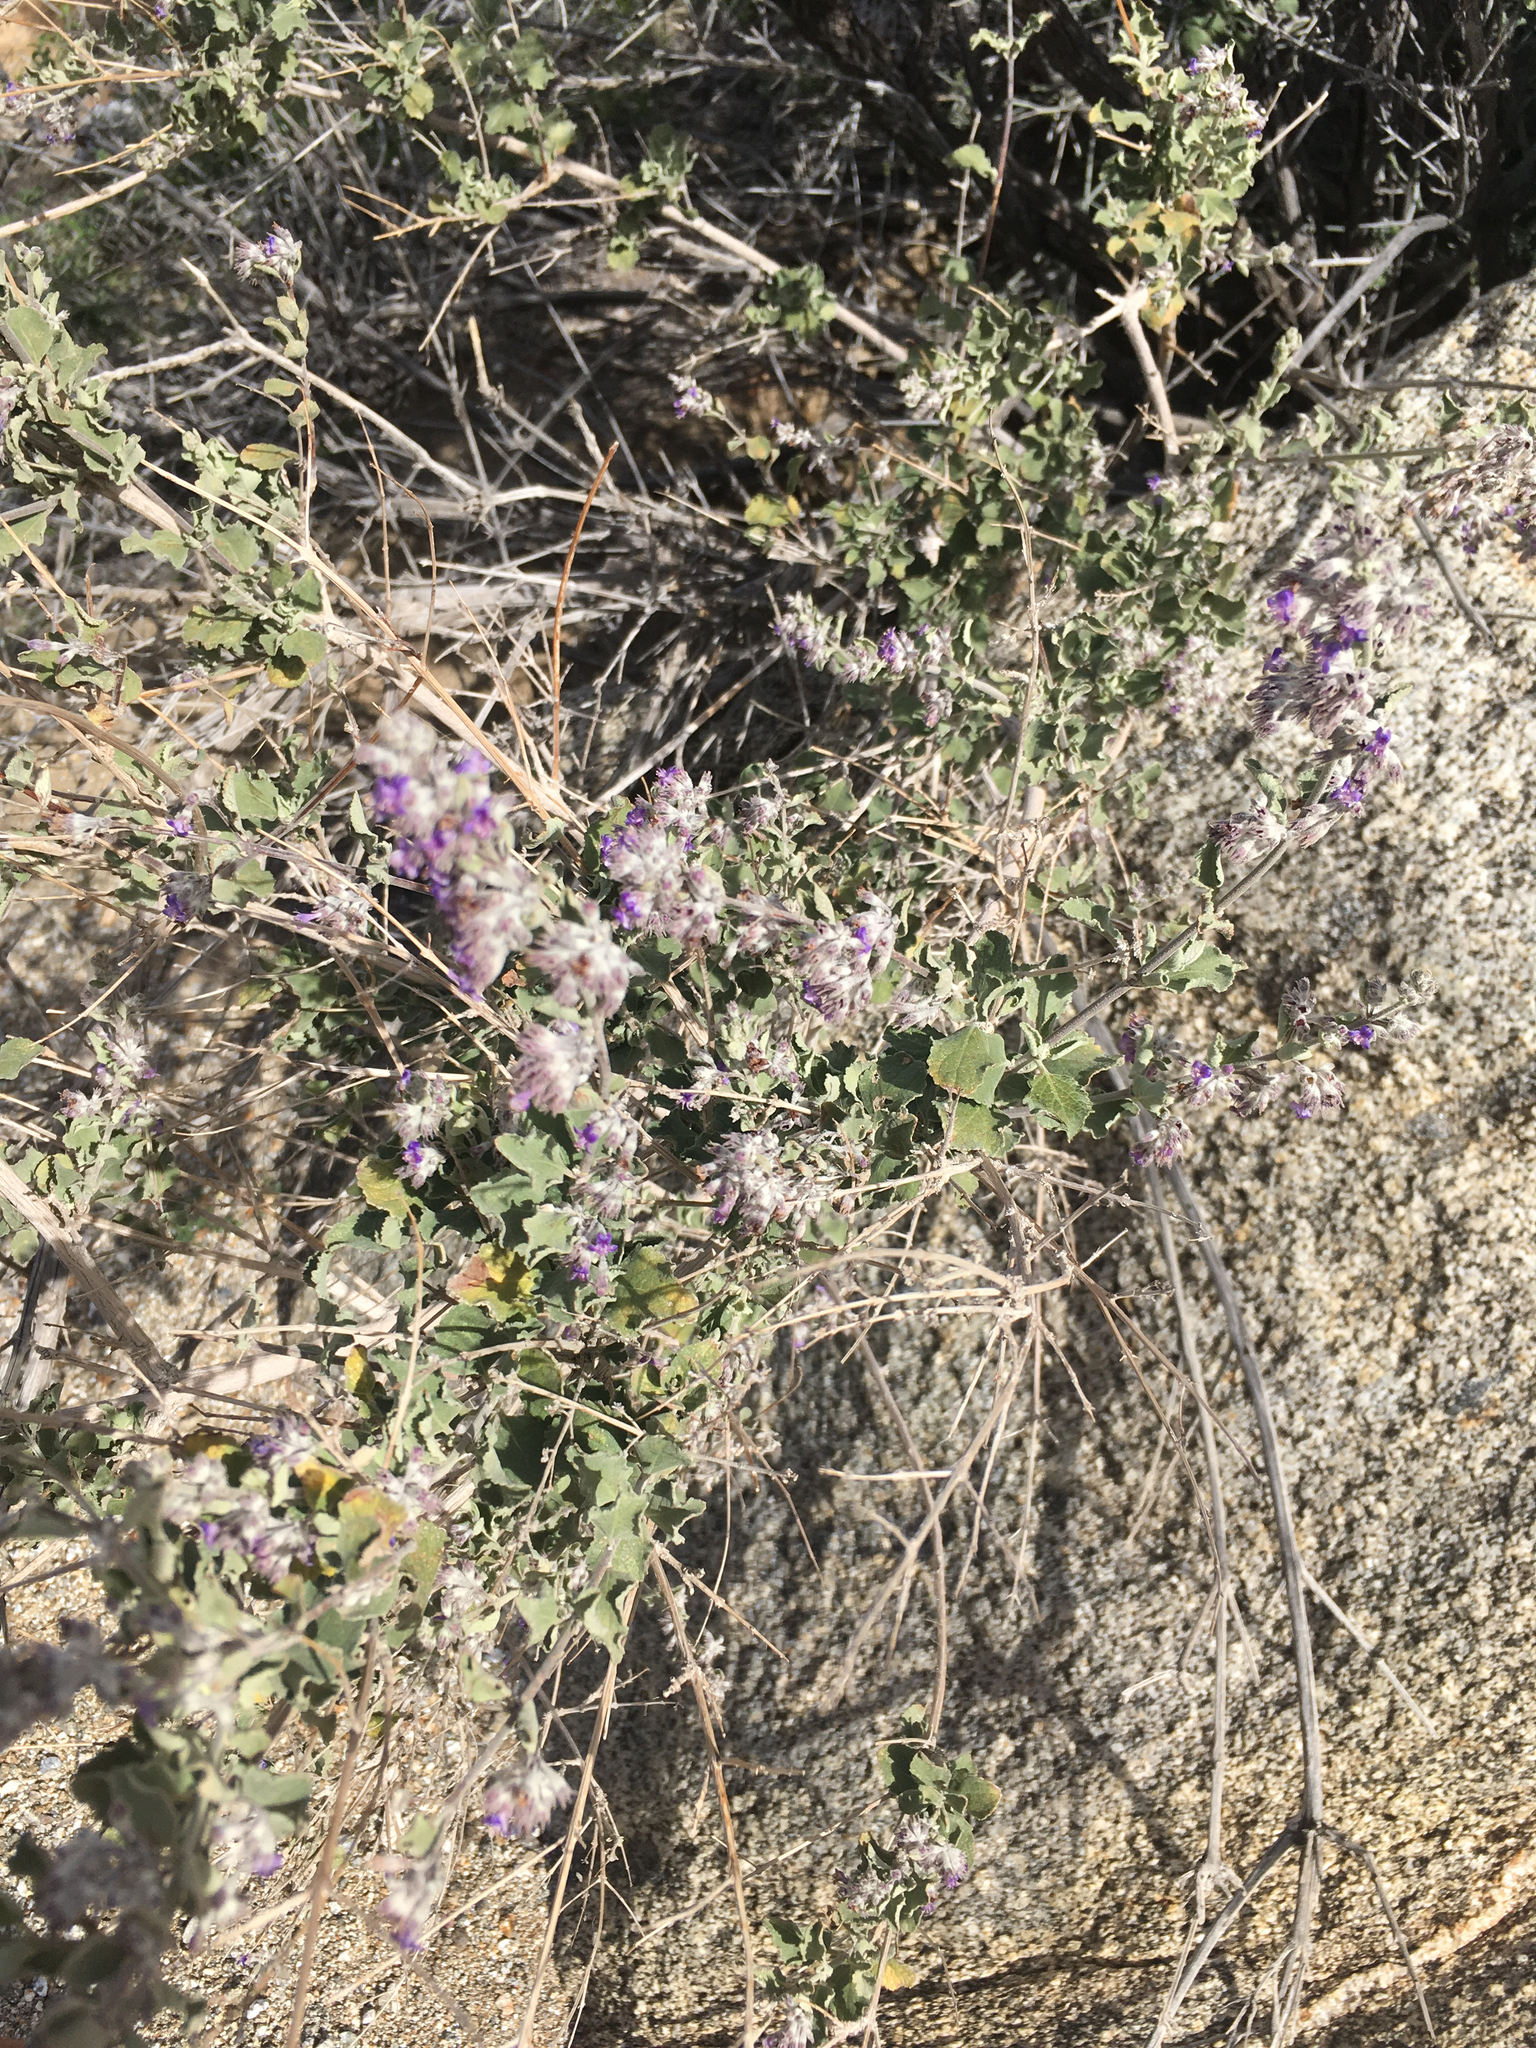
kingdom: Plantae
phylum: Tracheophyta
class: Magnoliopsida
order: Lamiales
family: Lamiaceae
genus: Condea
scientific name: Condea emoryi
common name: Chia
